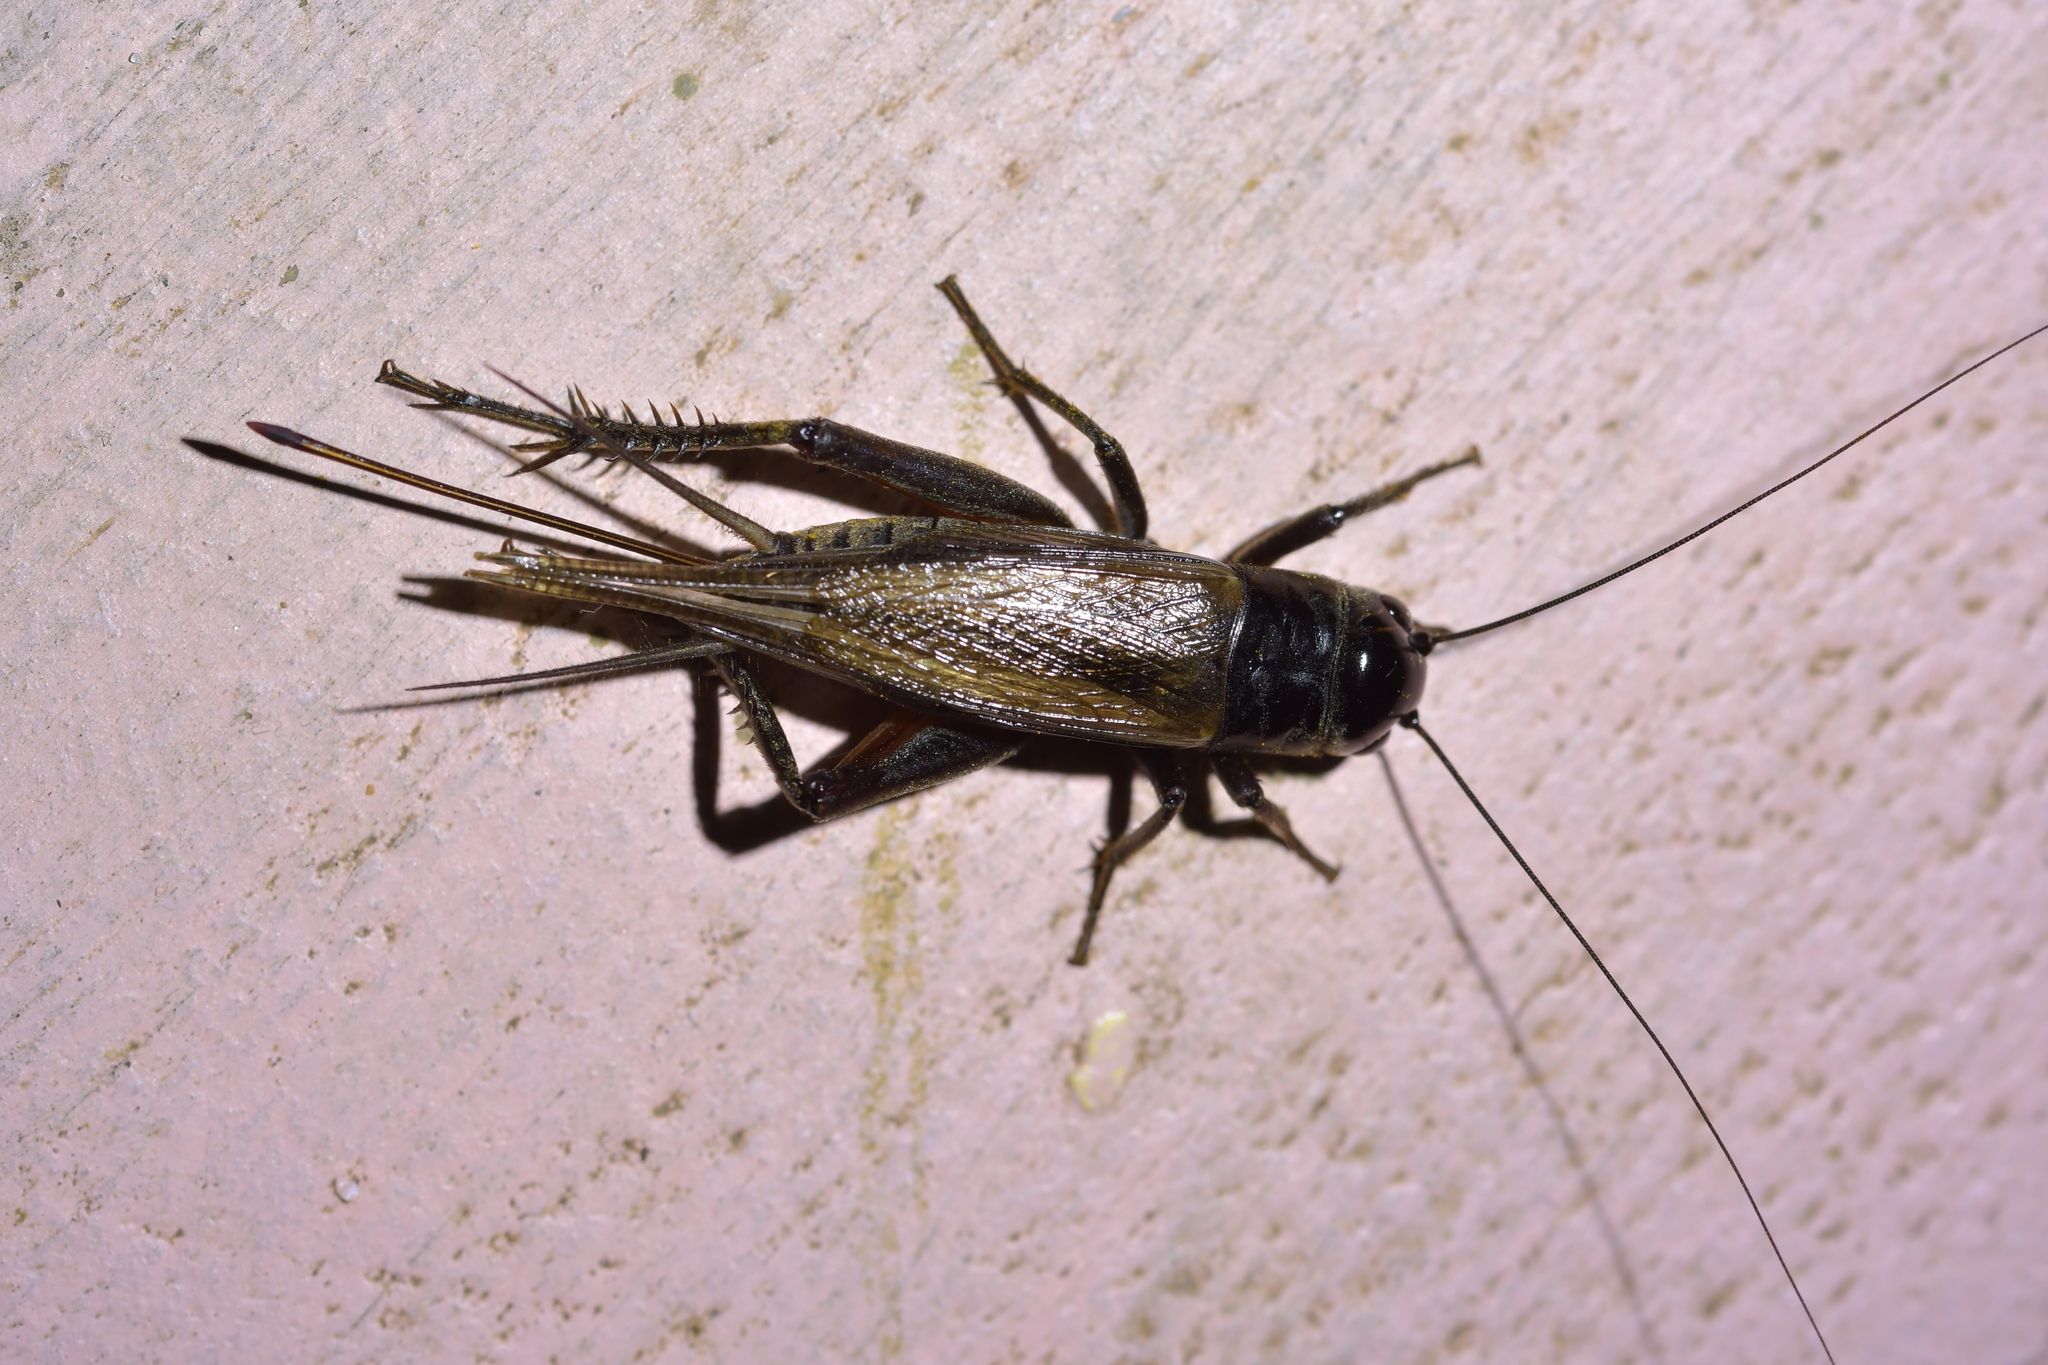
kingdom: Animalia
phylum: Arthropoda
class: Insecta
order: Orthoptera
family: Gryllidae
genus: Teleogryllus
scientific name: Teleogryllus commodus
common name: Black field cricket
